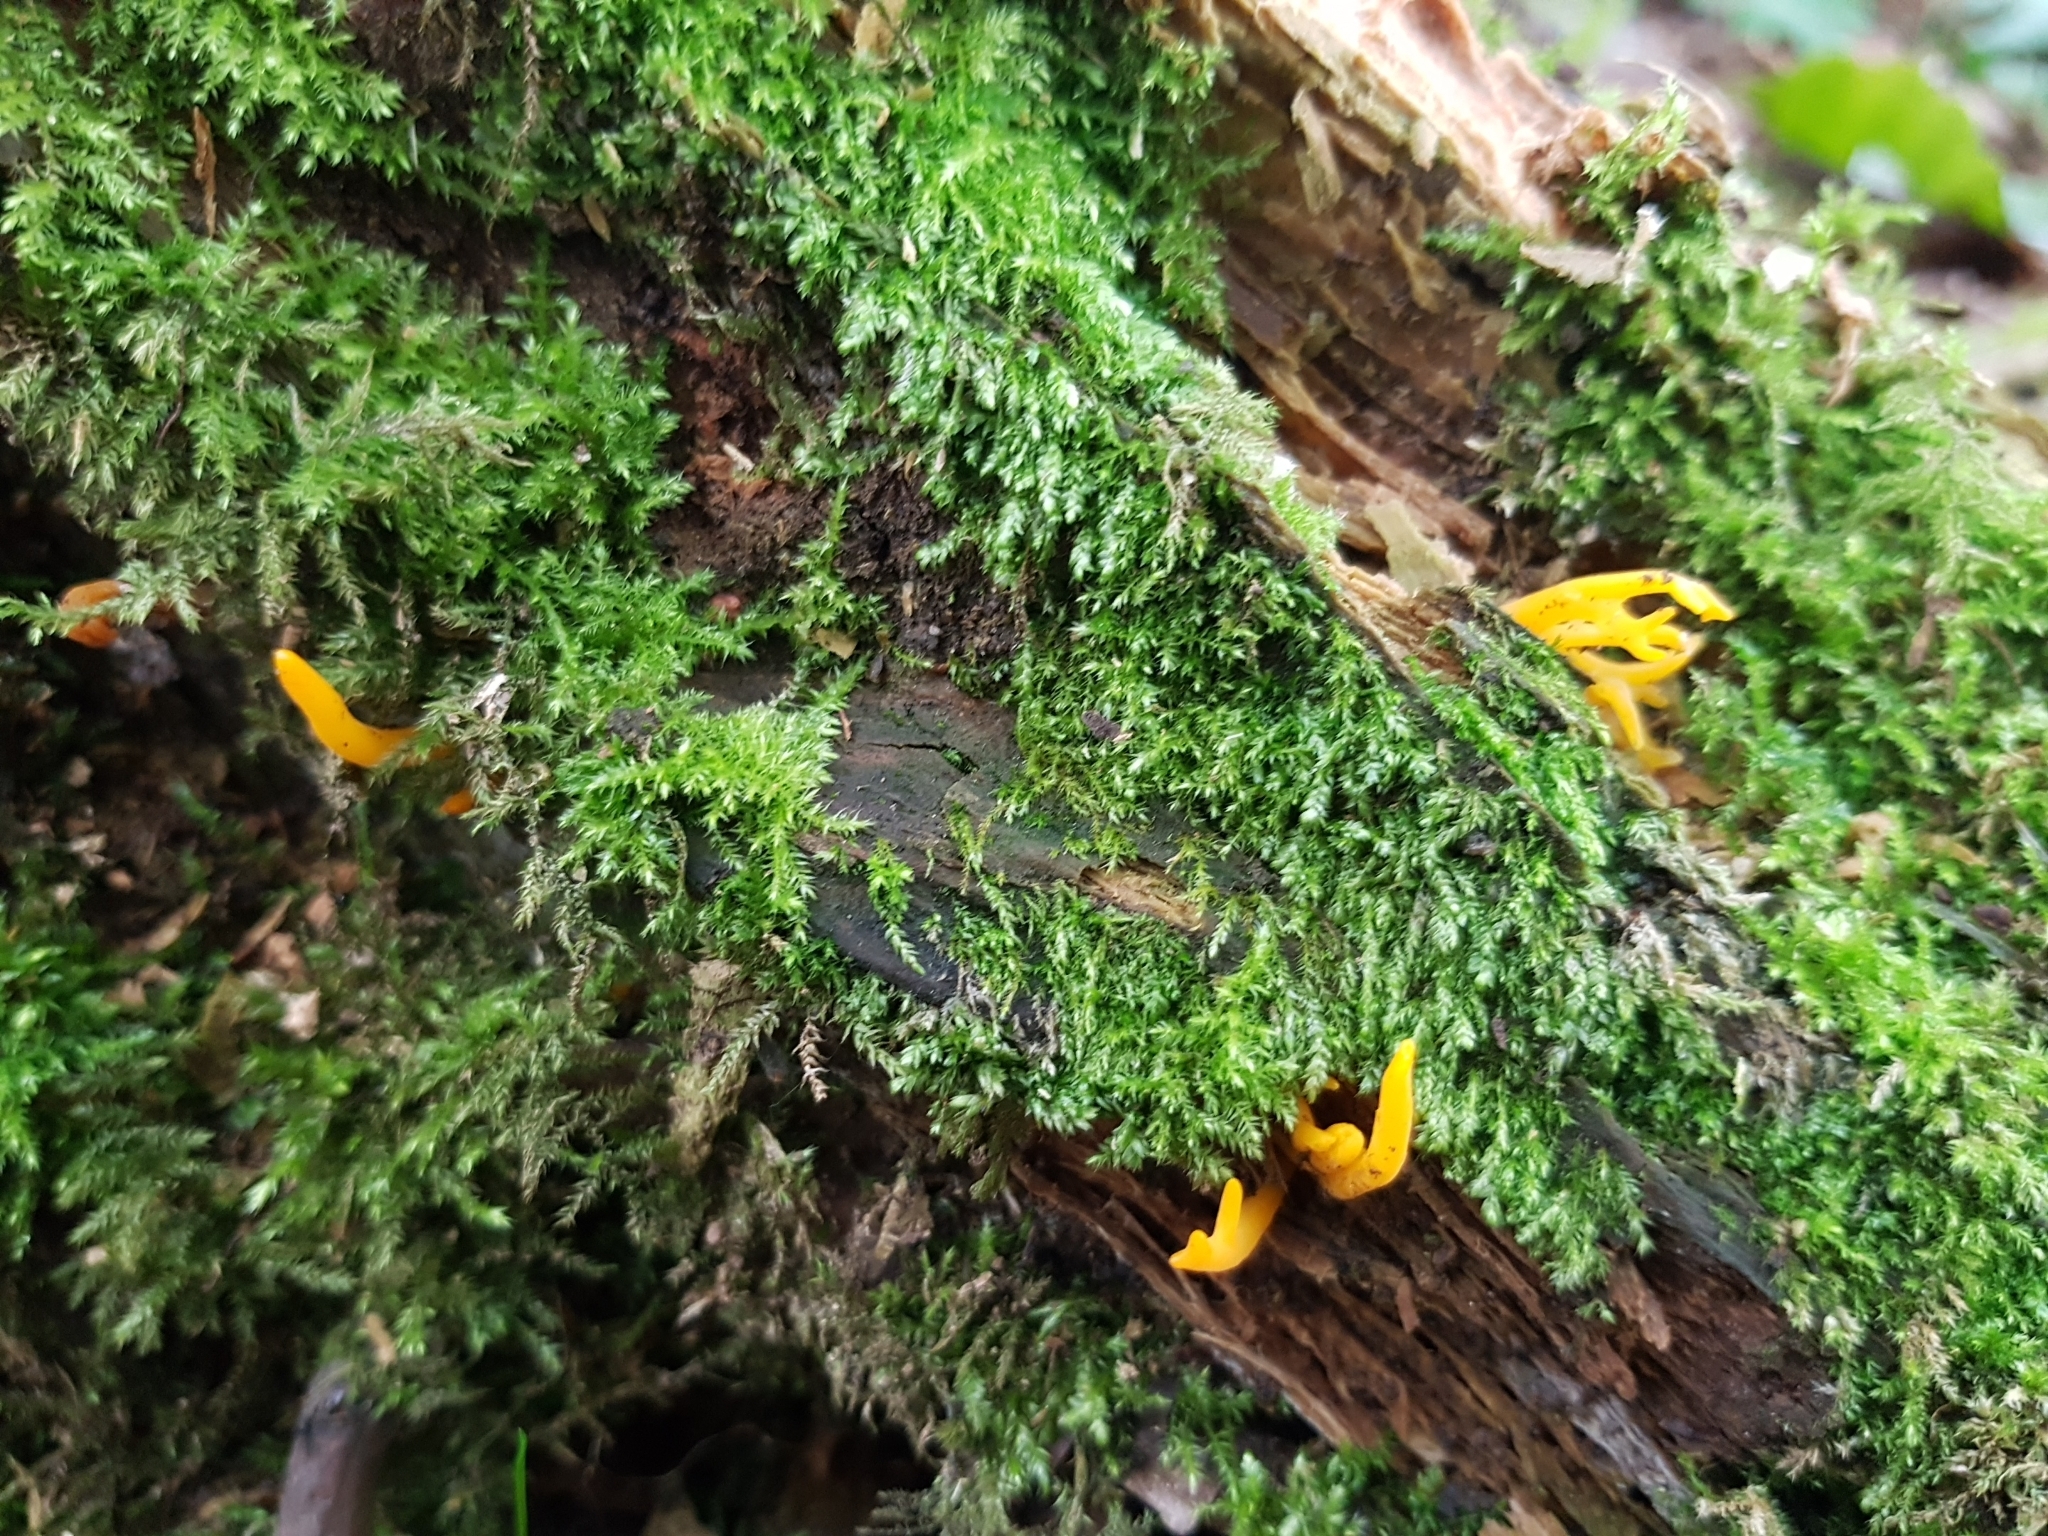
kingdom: Fungi
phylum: Basidiomycota
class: Dacrymycetes
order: Dacrymycetales
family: Dacrymycetaceae
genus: Calocera
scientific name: Calocera viscosa
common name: Yellow stagshorn
